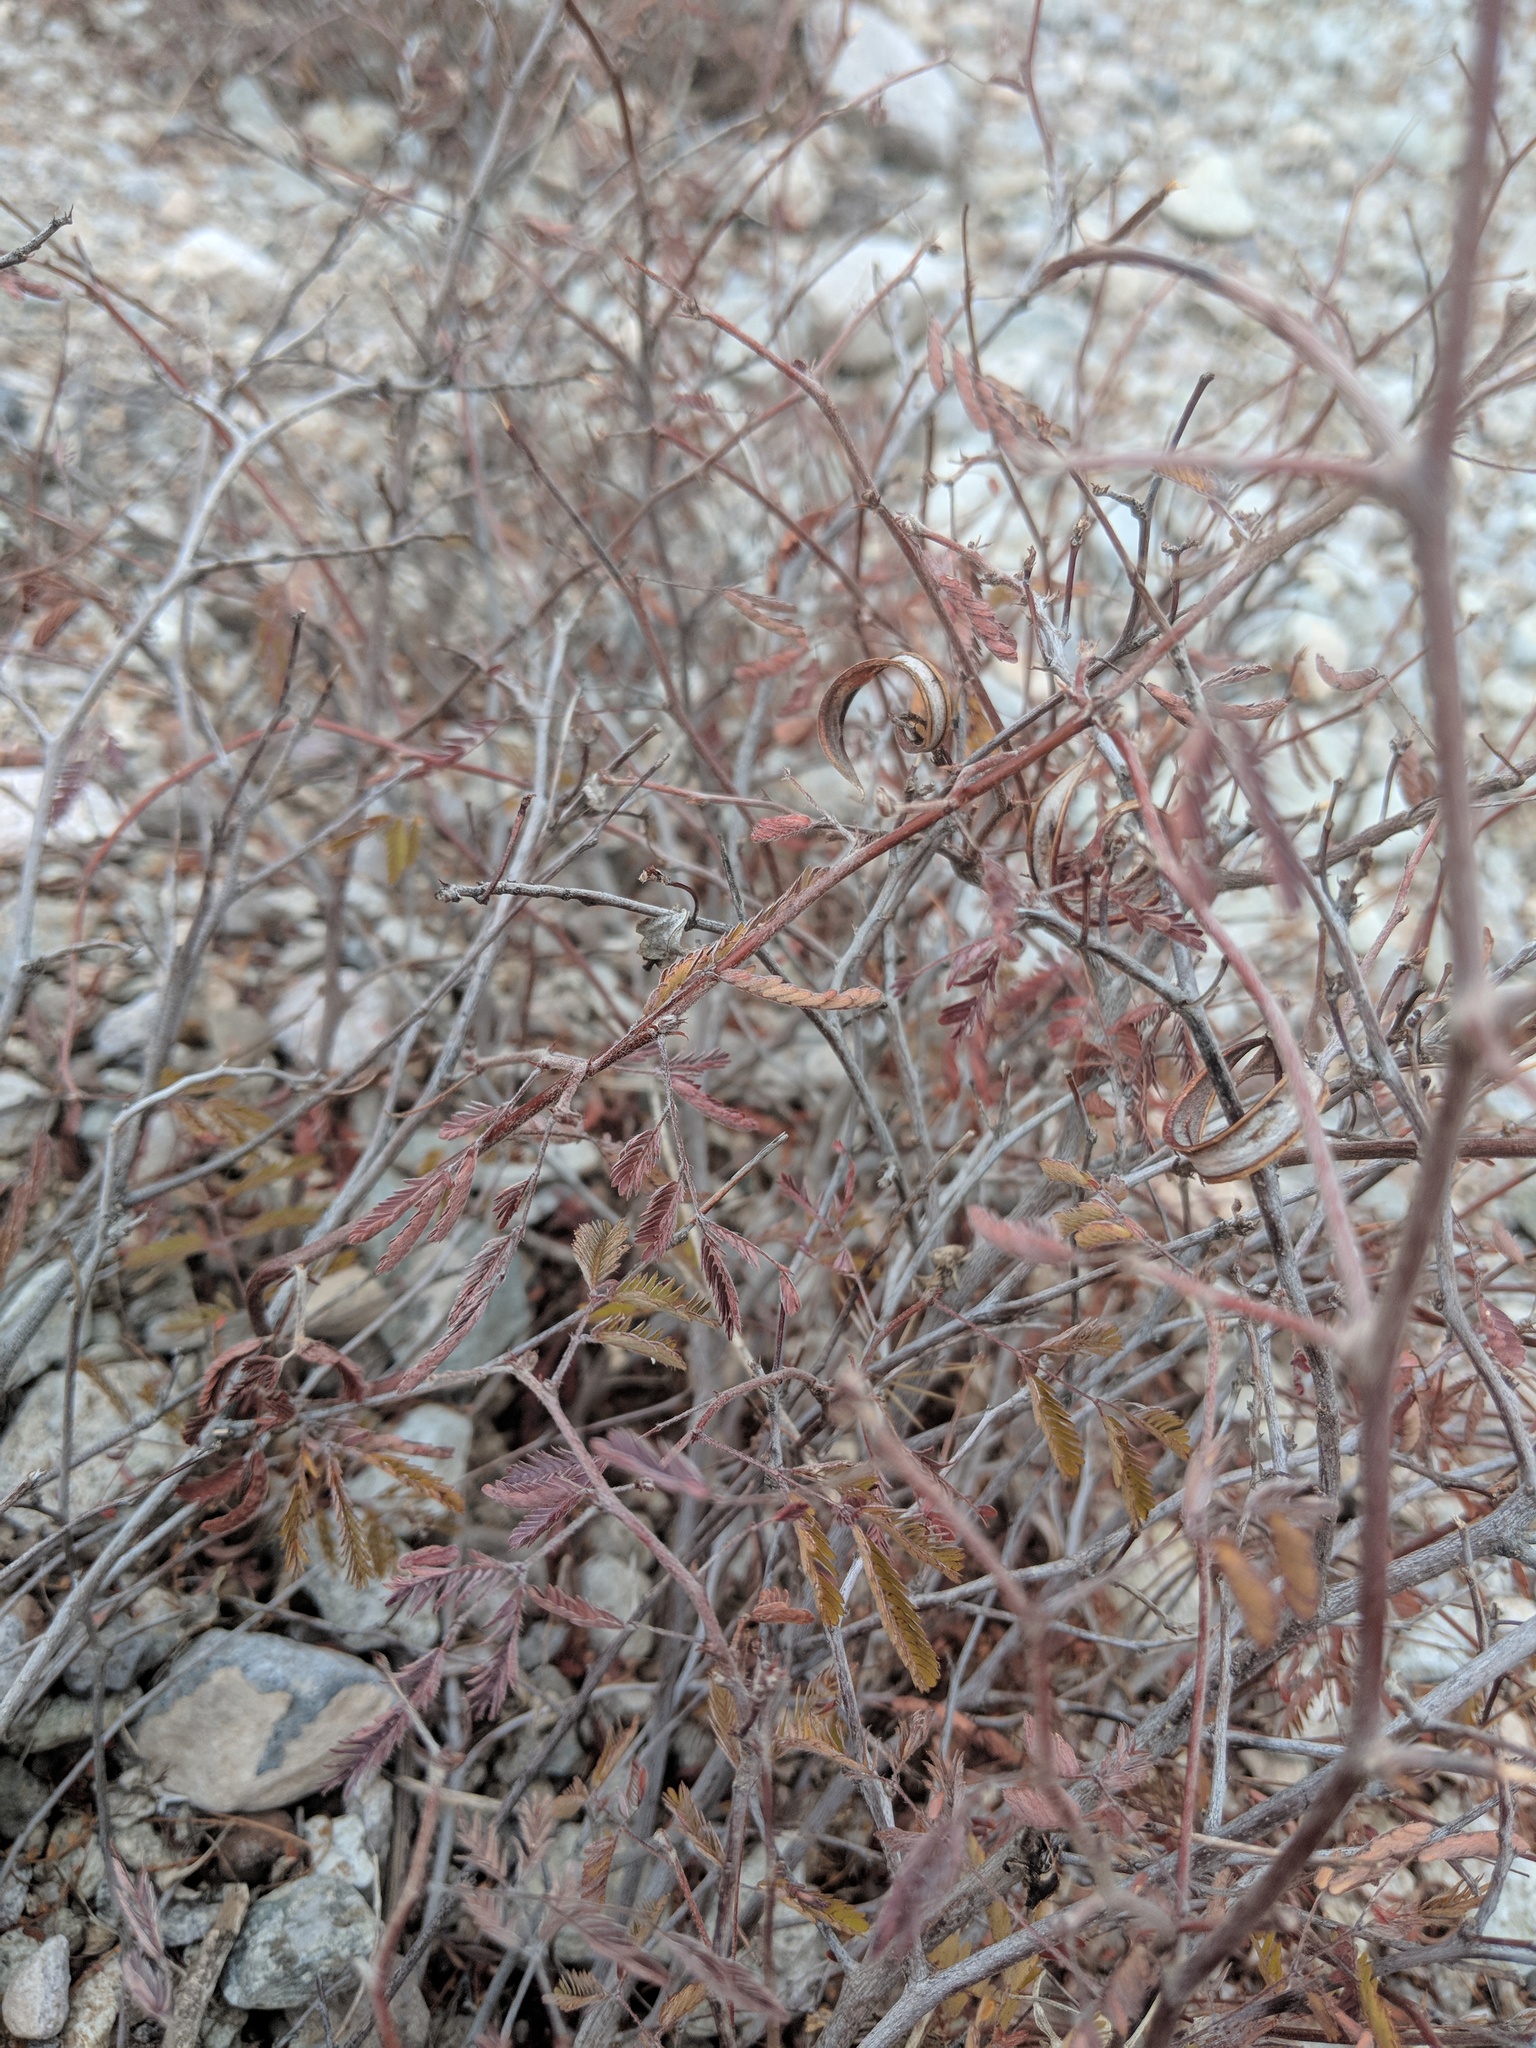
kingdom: Plantae
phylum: Tracheophyta
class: Magnoliopsida
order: Fabales
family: Fabaceae
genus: Calliandra
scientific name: Calliandra eriophylla
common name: Fairy-duster
